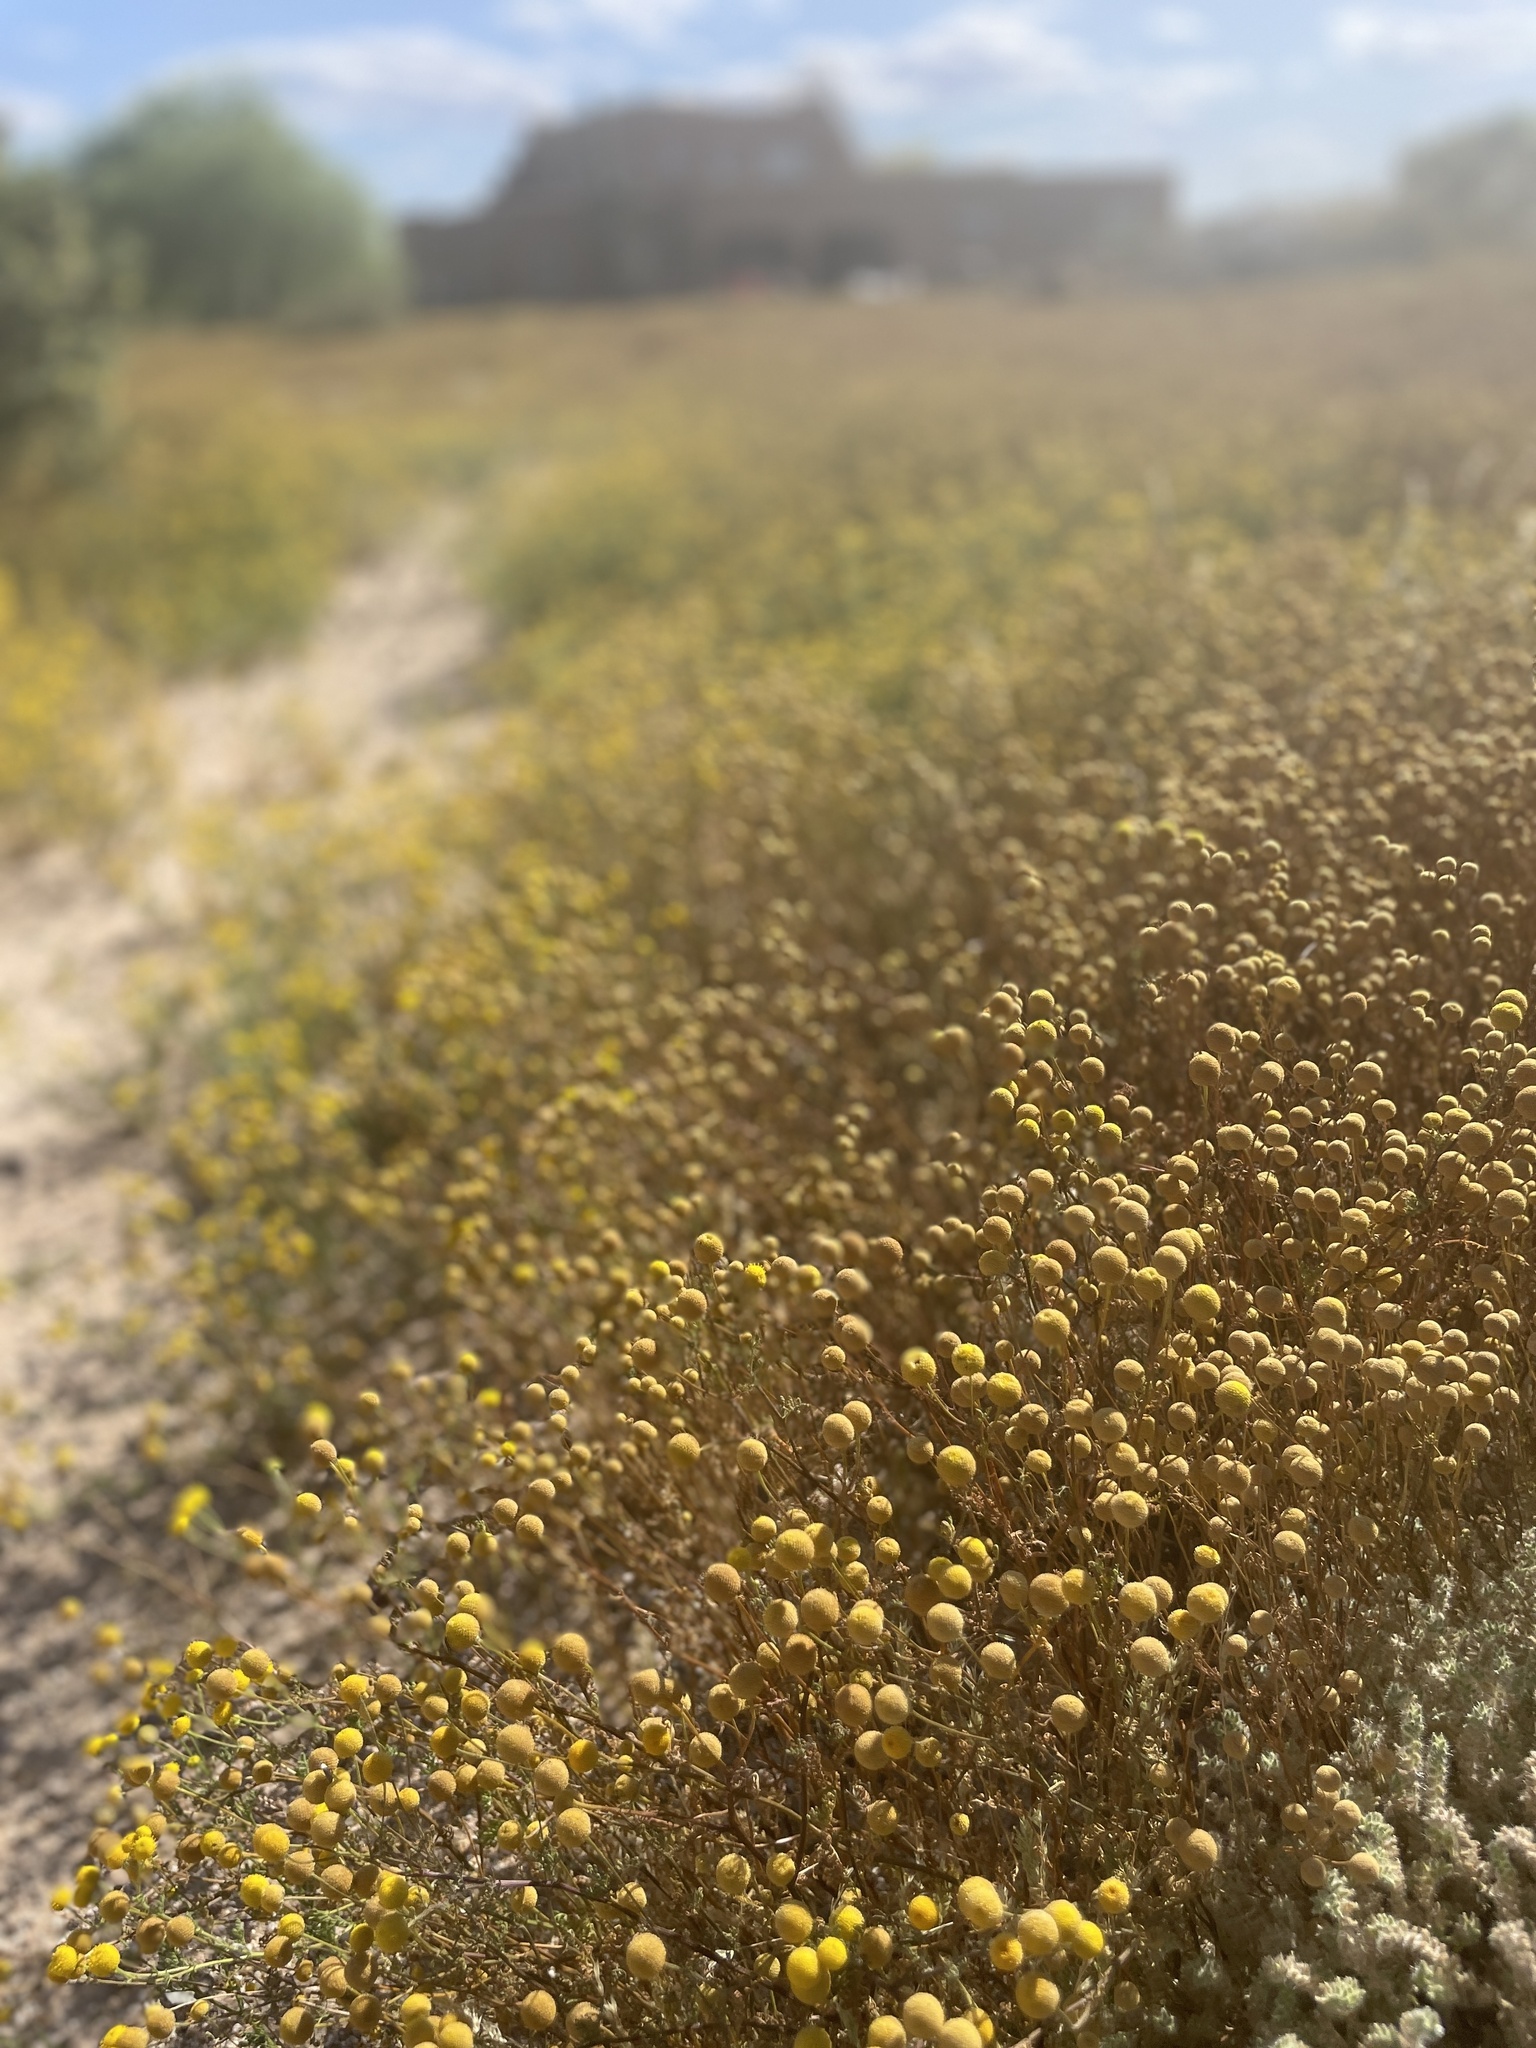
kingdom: Plantae
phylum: Tracheophyta
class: Magnoliopsida
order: Asterales
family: Asteraceae
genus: Oncosiphon
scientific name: Oncosiphon pilulifer
